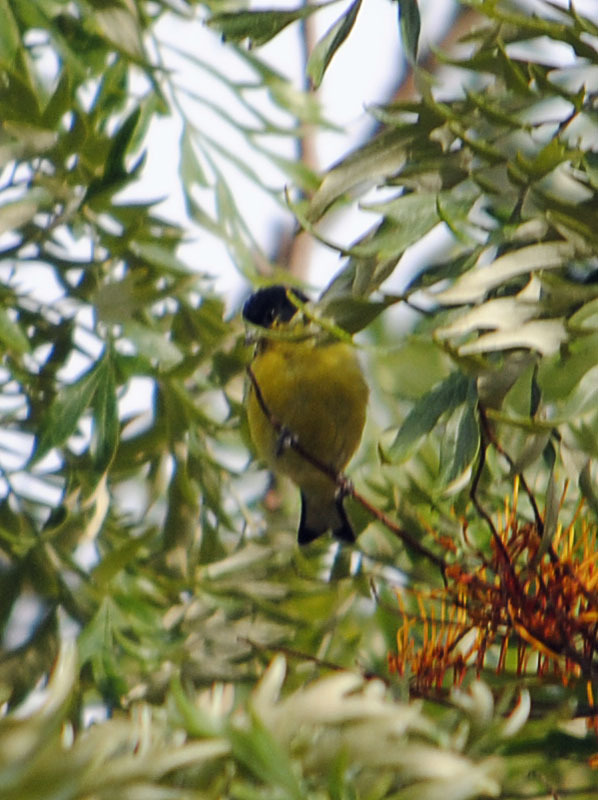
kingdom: Animalia
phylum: Chordata
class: Aves
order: Passeriformes
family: Fringillidae
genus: Spinus
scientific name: Spinus psaltria
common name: Lesser goldfinch
